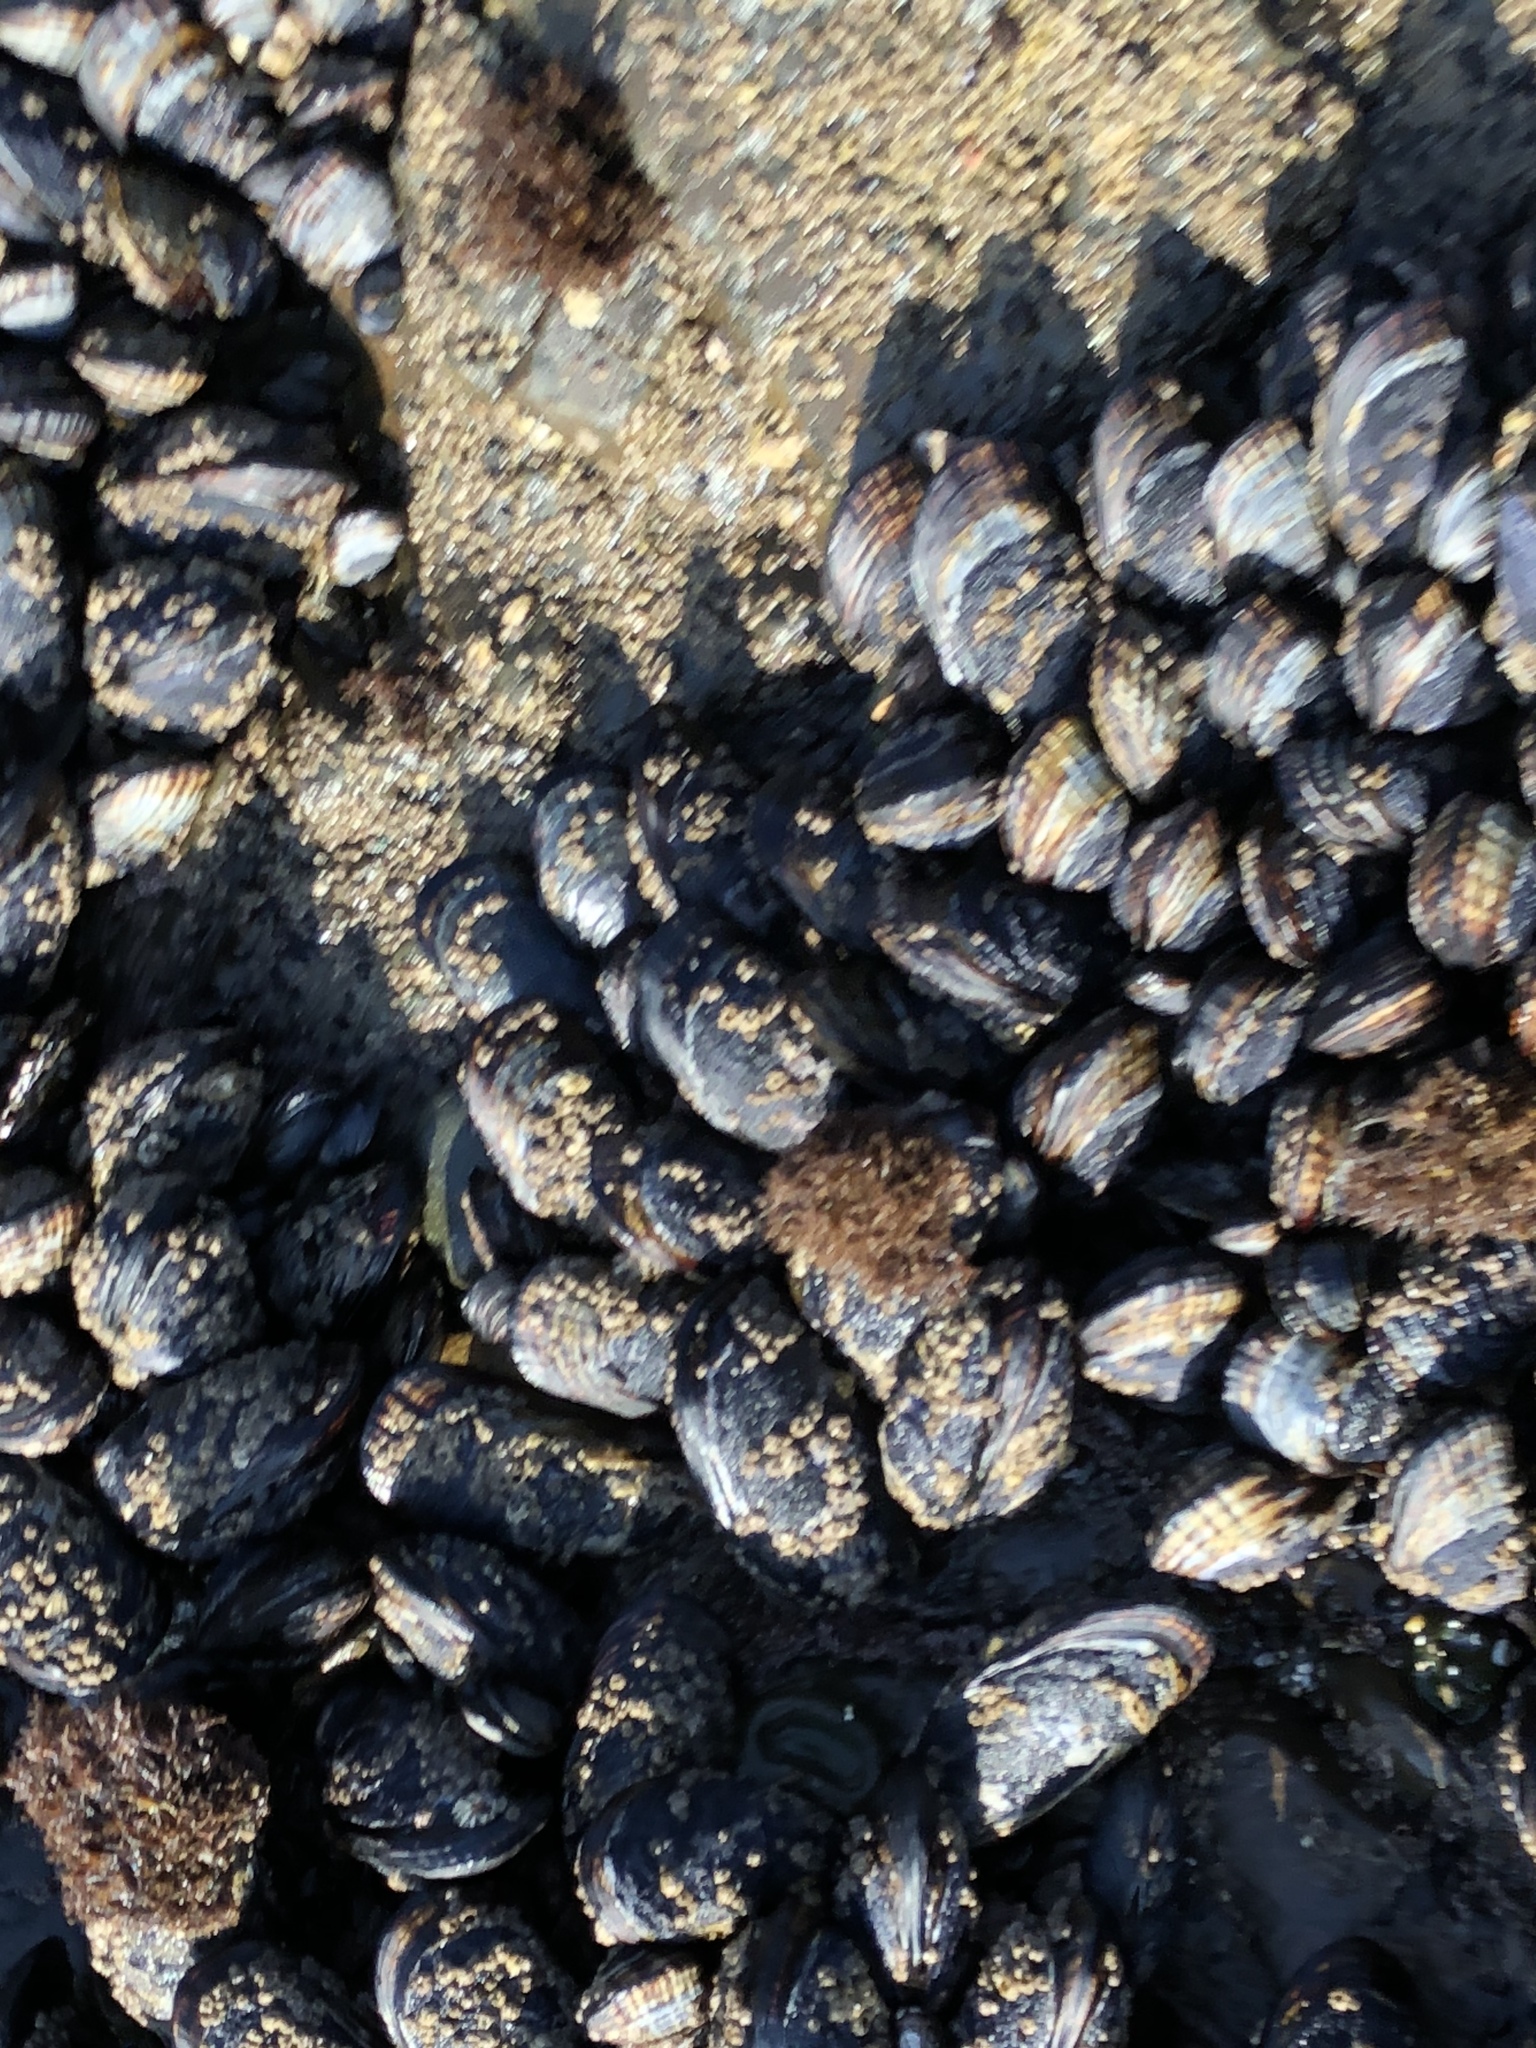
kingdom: Animalia
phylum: Mollusca
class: Bivalvia
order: Mytilida
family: Mytilidae
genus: Mytilus
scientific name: Mytilus californianus
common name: California mussel
